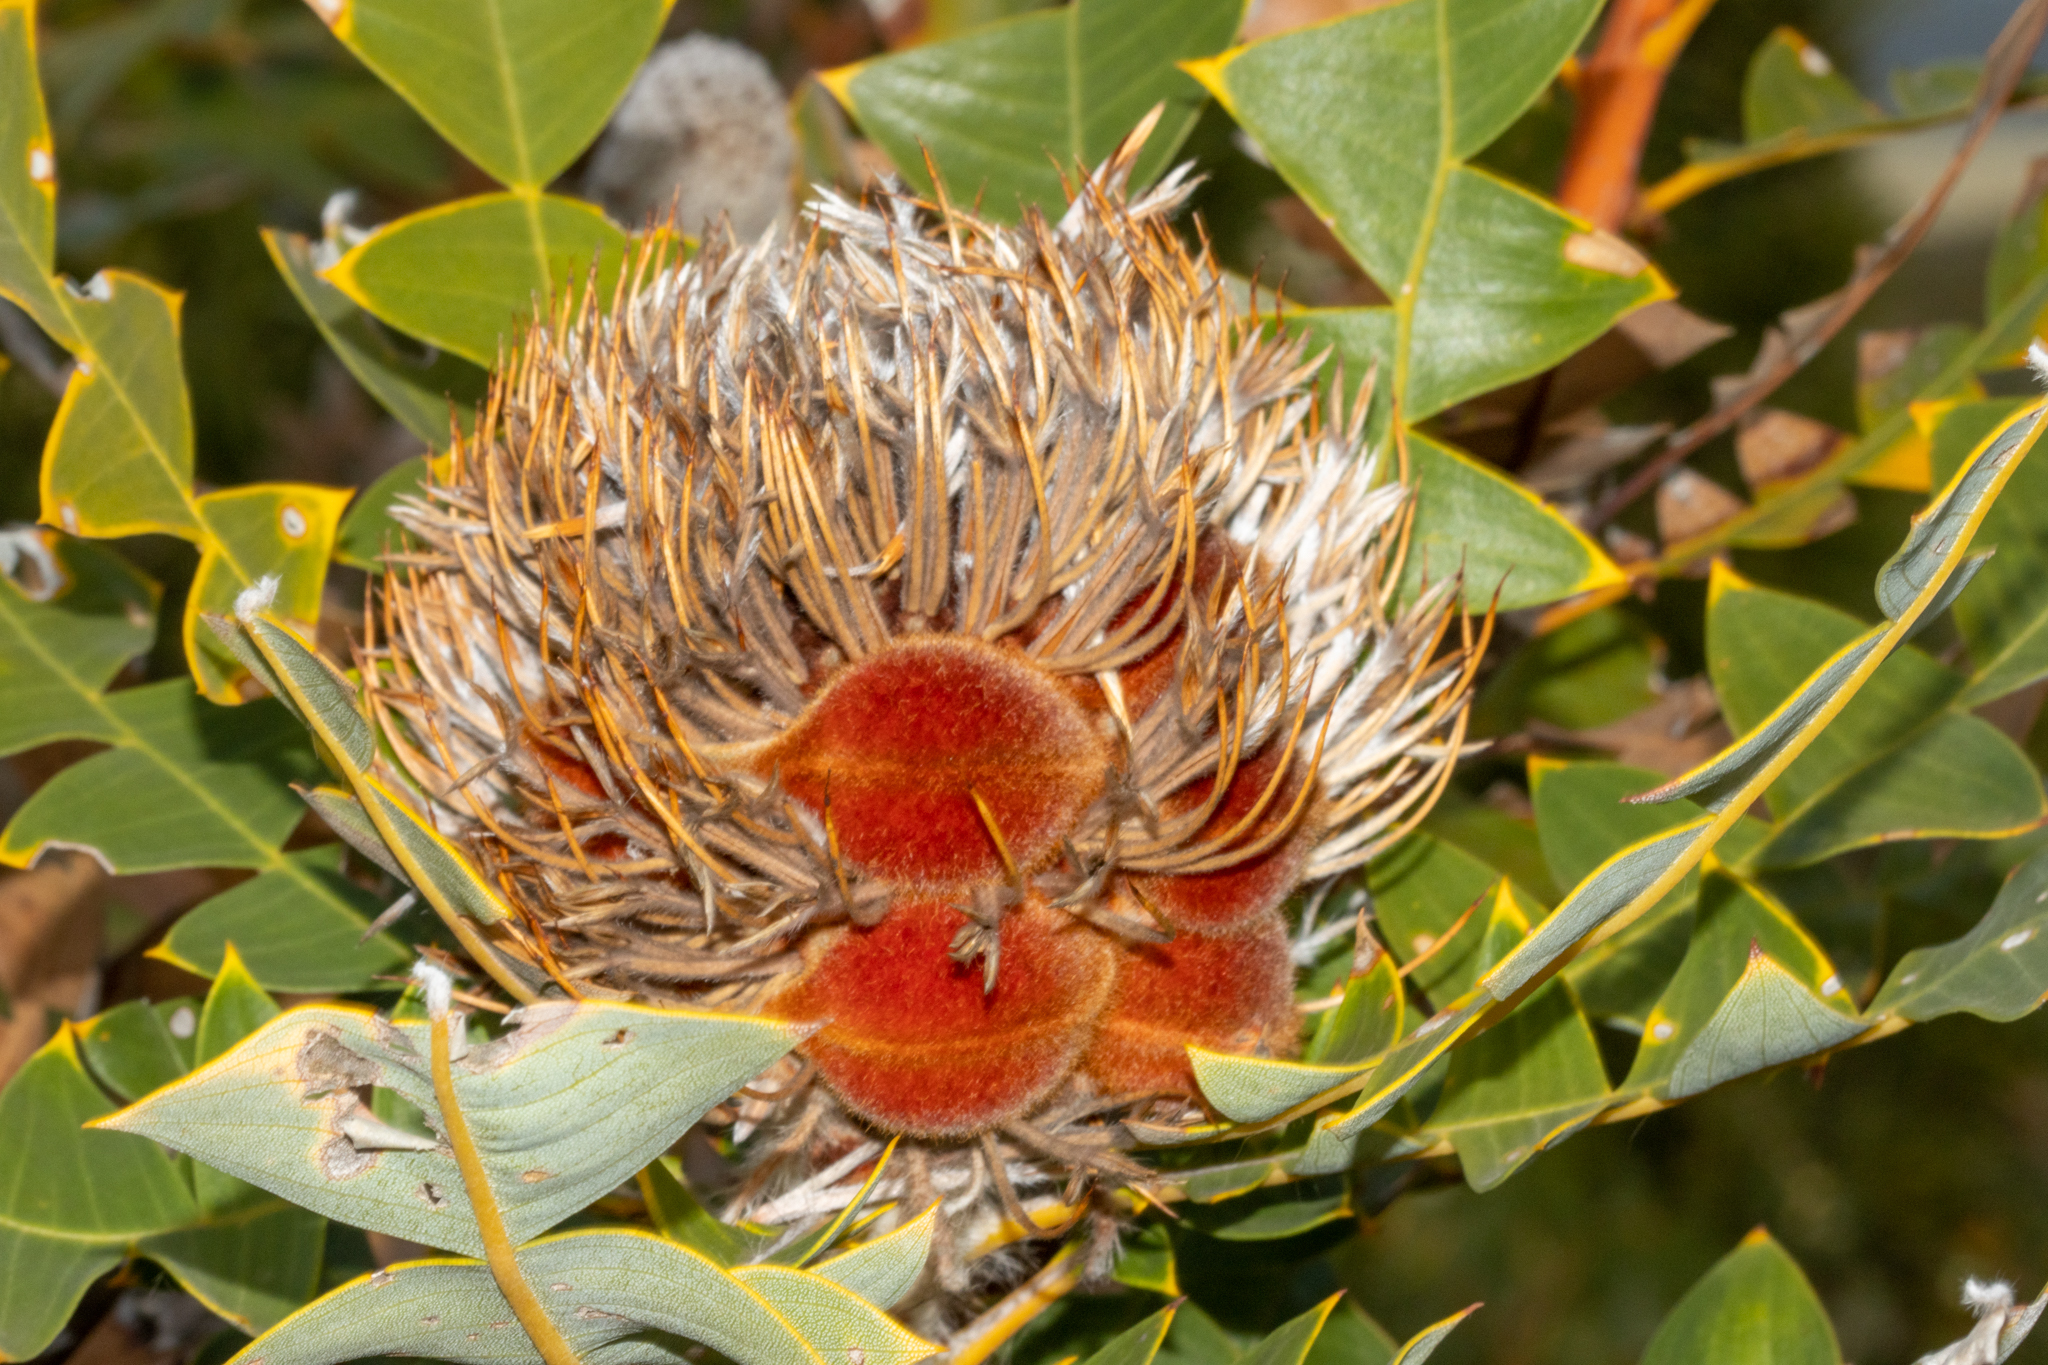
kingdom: Plantae
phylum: Tracheophyta
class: Magnoliopsida
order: Proteales
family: Proteaceae
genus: Banksia
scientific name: Banksia baxteri
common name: Bird's-nest banksia
